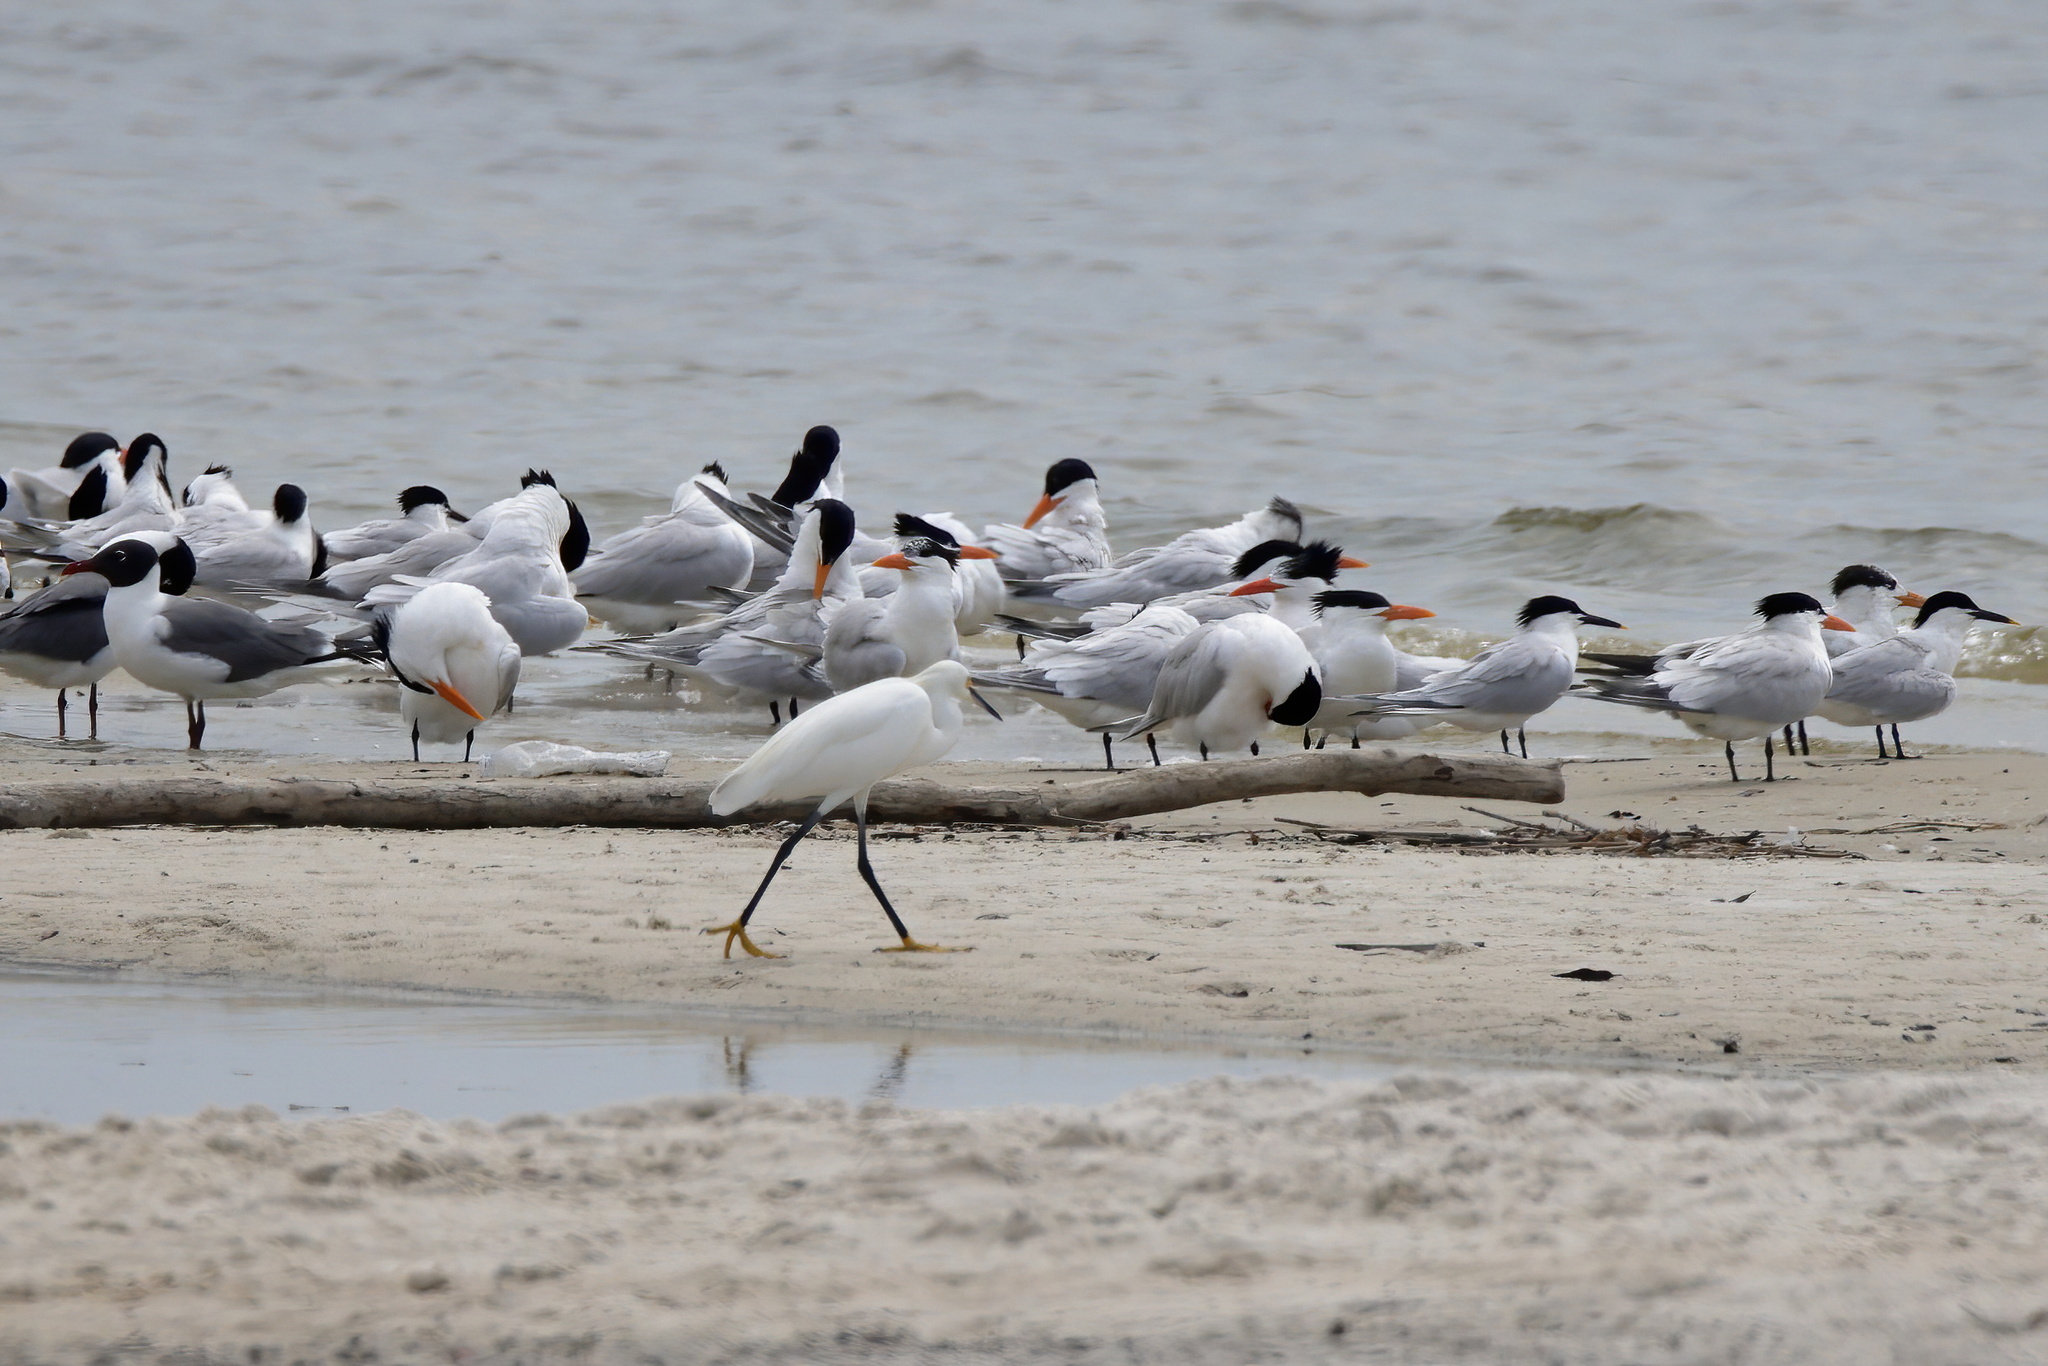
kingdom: Animalia
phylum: Chordata
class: Aves
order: Pelecaniformes
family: Ardeidae
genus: Egretta
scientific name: Egretta thula
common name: Snowy egret
